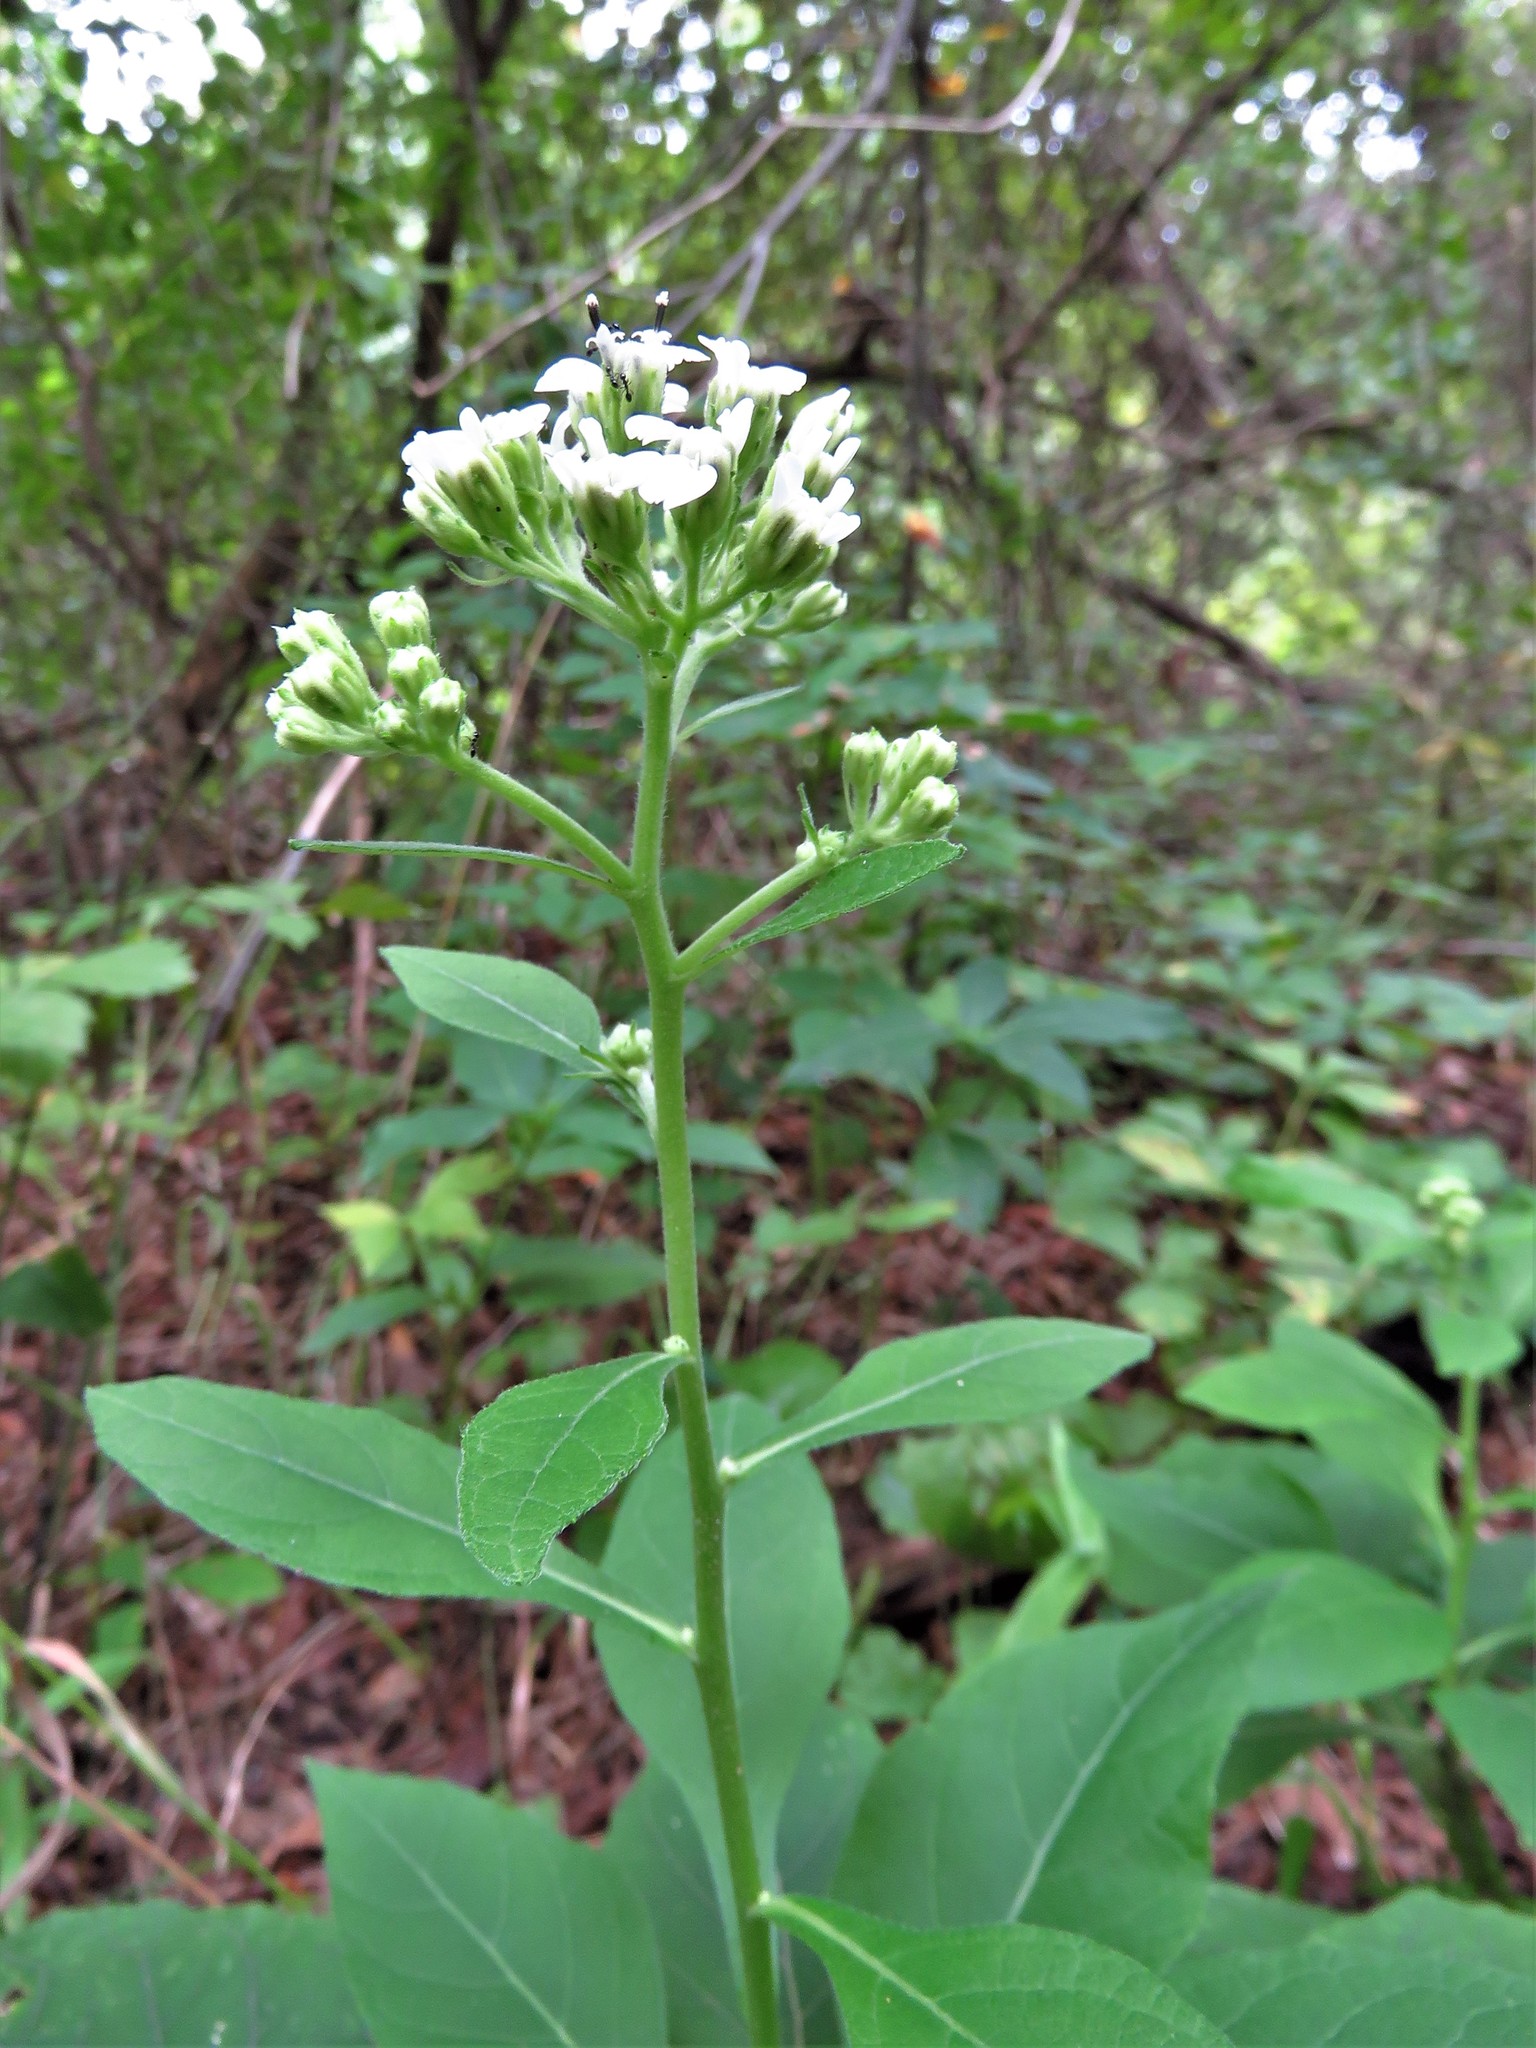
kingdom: Plantae
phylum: Tracheophyta
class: Magnoliopsida
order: Asterales
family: Asteraceae
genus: Verbesina
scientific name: Verbesina virginica
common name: Frostweed
